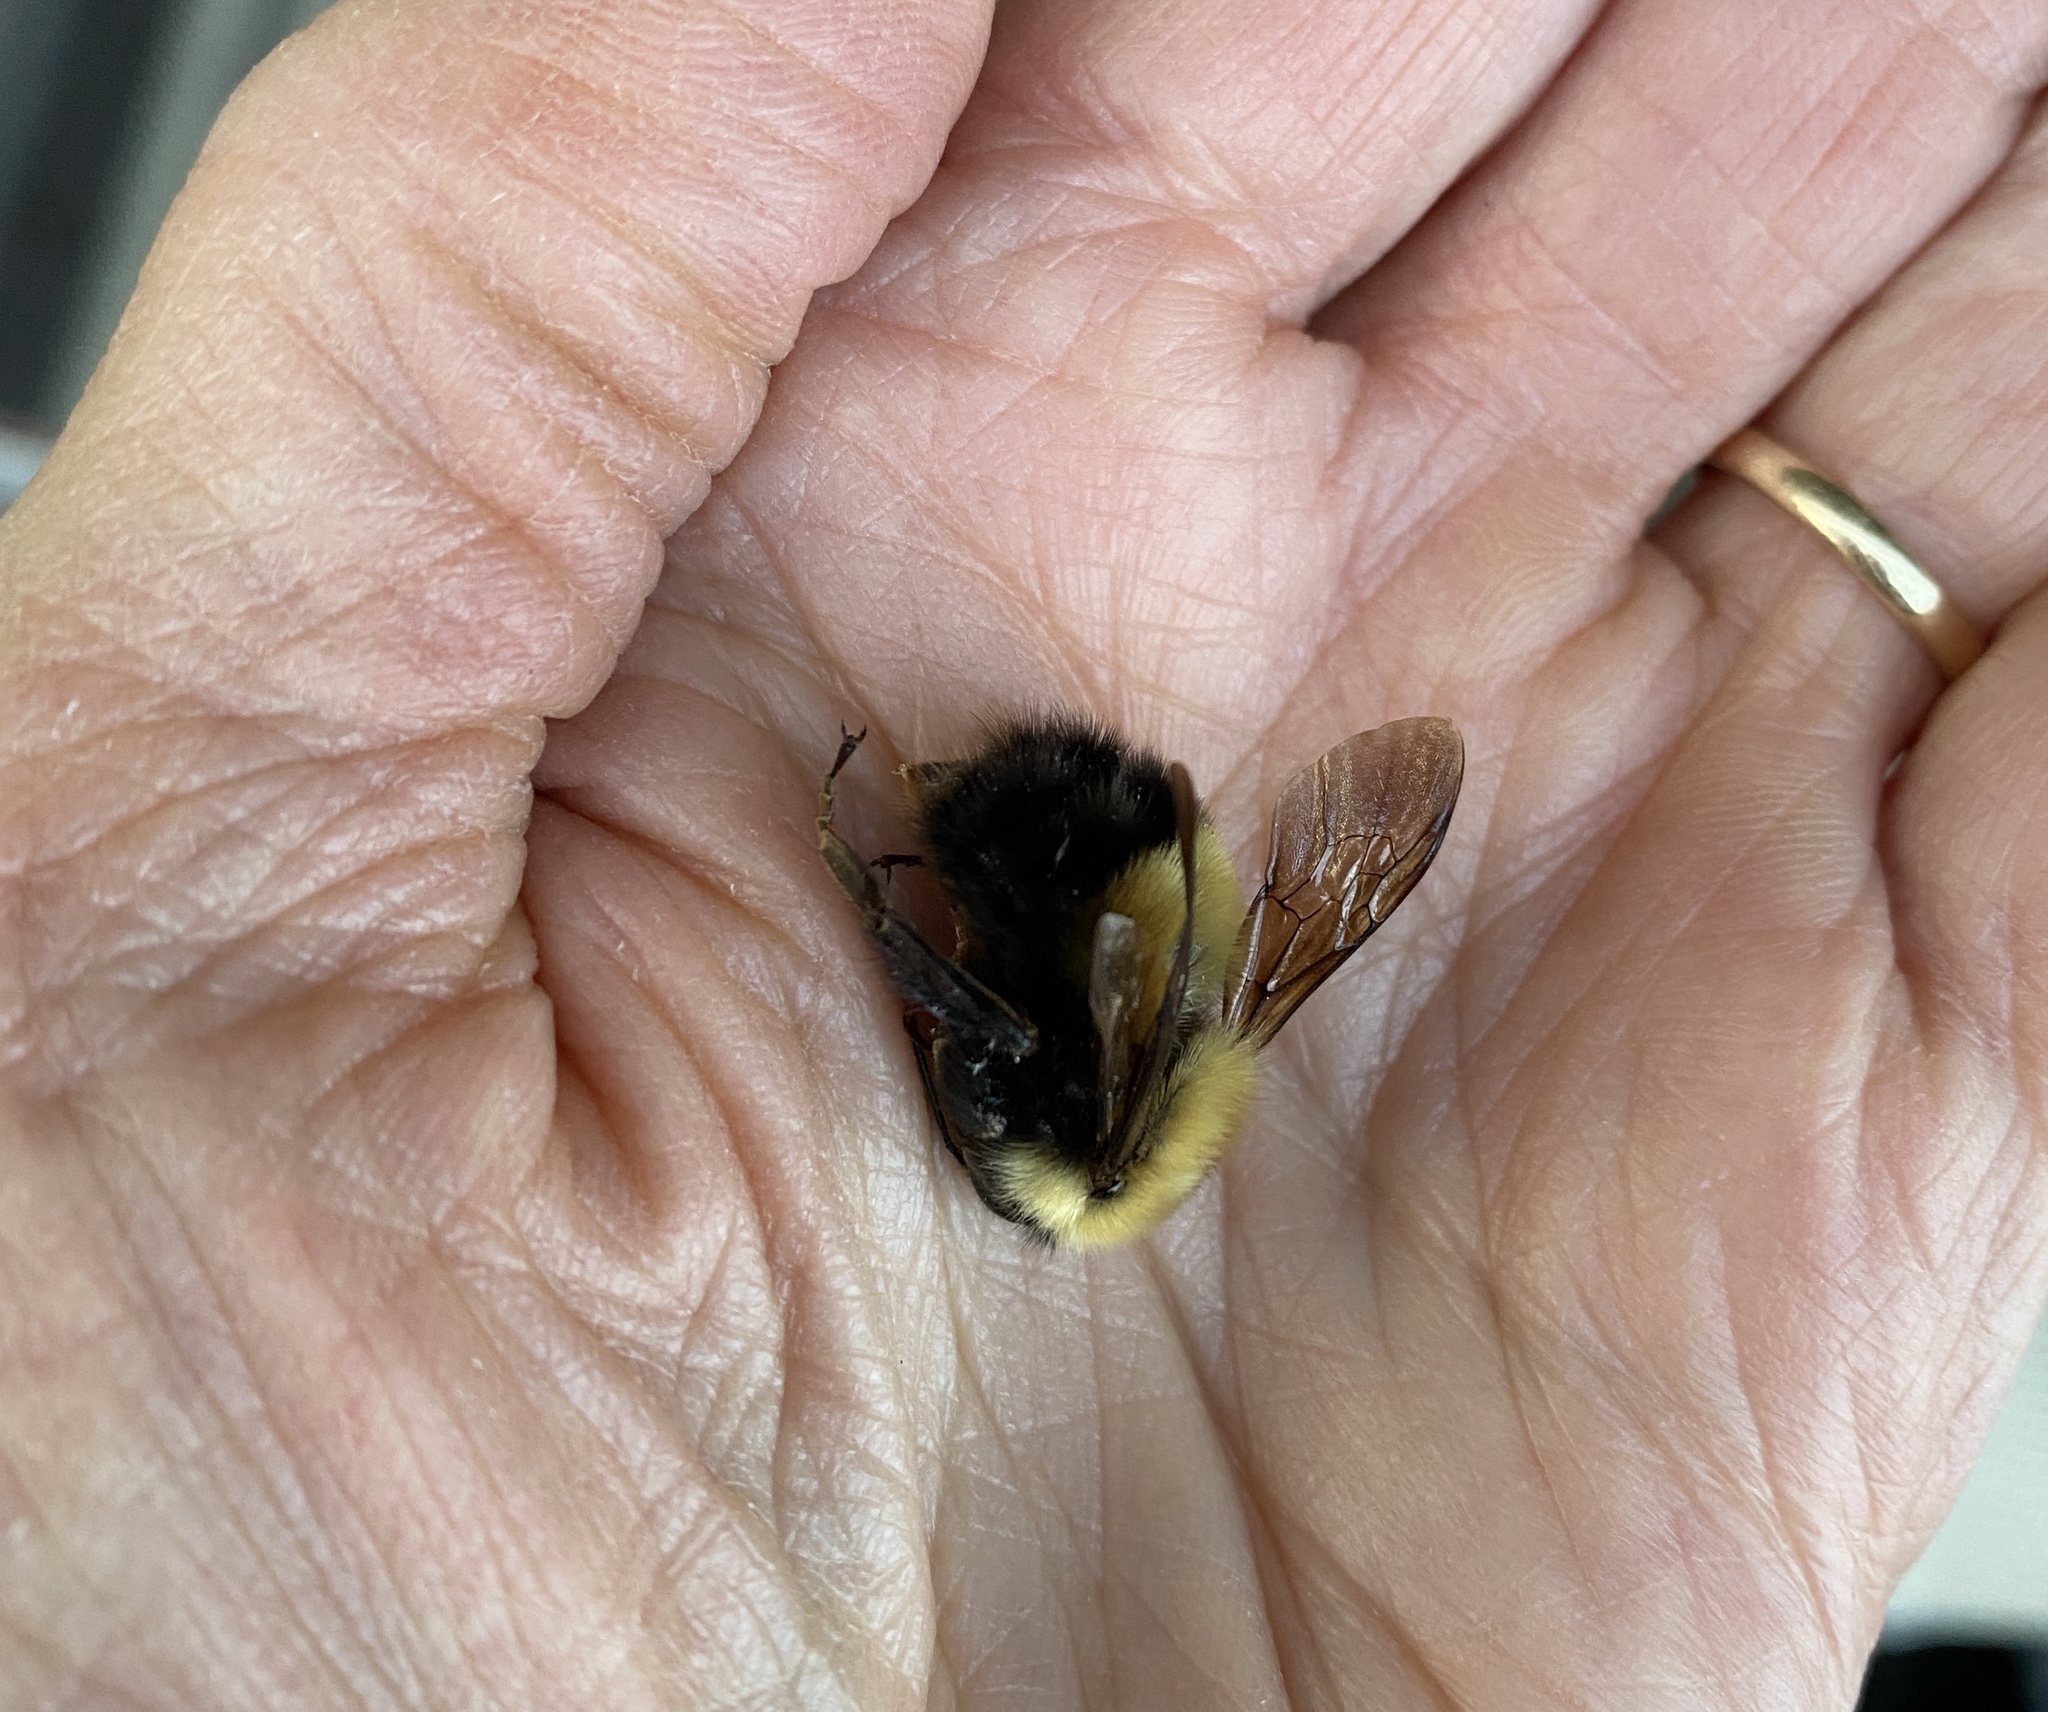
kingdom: Animalia
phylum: Arthropoda
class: Insecta
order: Hymenoptera
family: Apidae
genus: Bombus
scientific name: Bombus perplexus
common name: Confusing bumble bee
